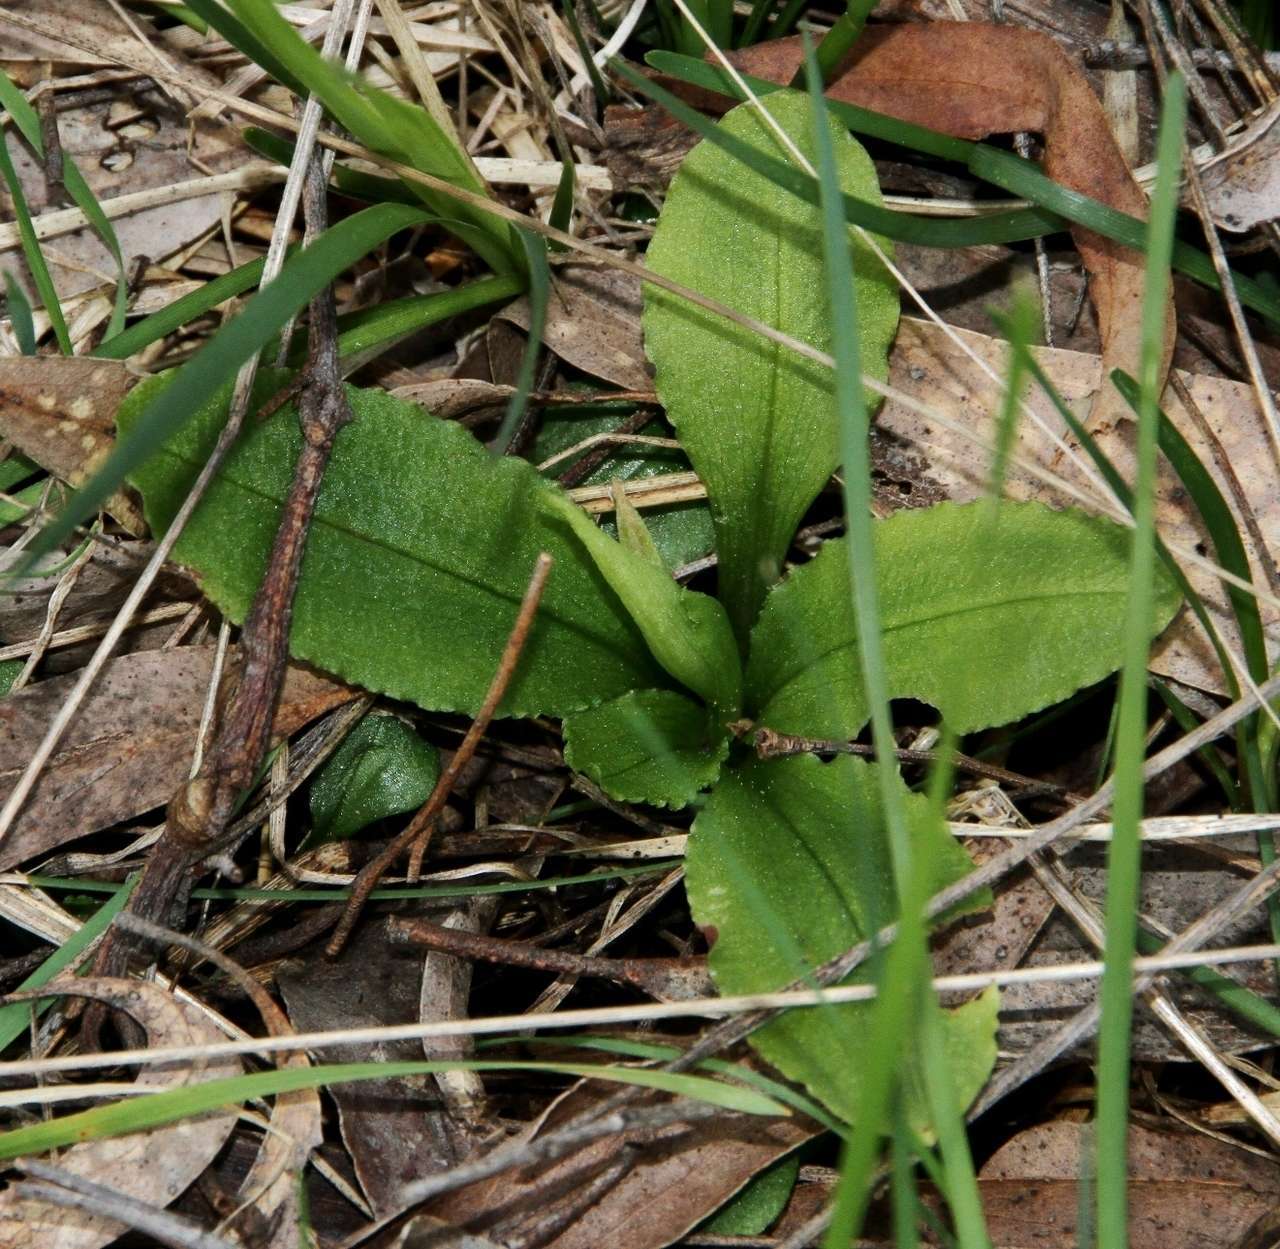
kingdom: Plantae
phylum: Tracheophyta
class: Liliopsida
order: Asparagales
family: Orchidaceae
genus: Pterostylis
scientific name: Pterostylis nutans
